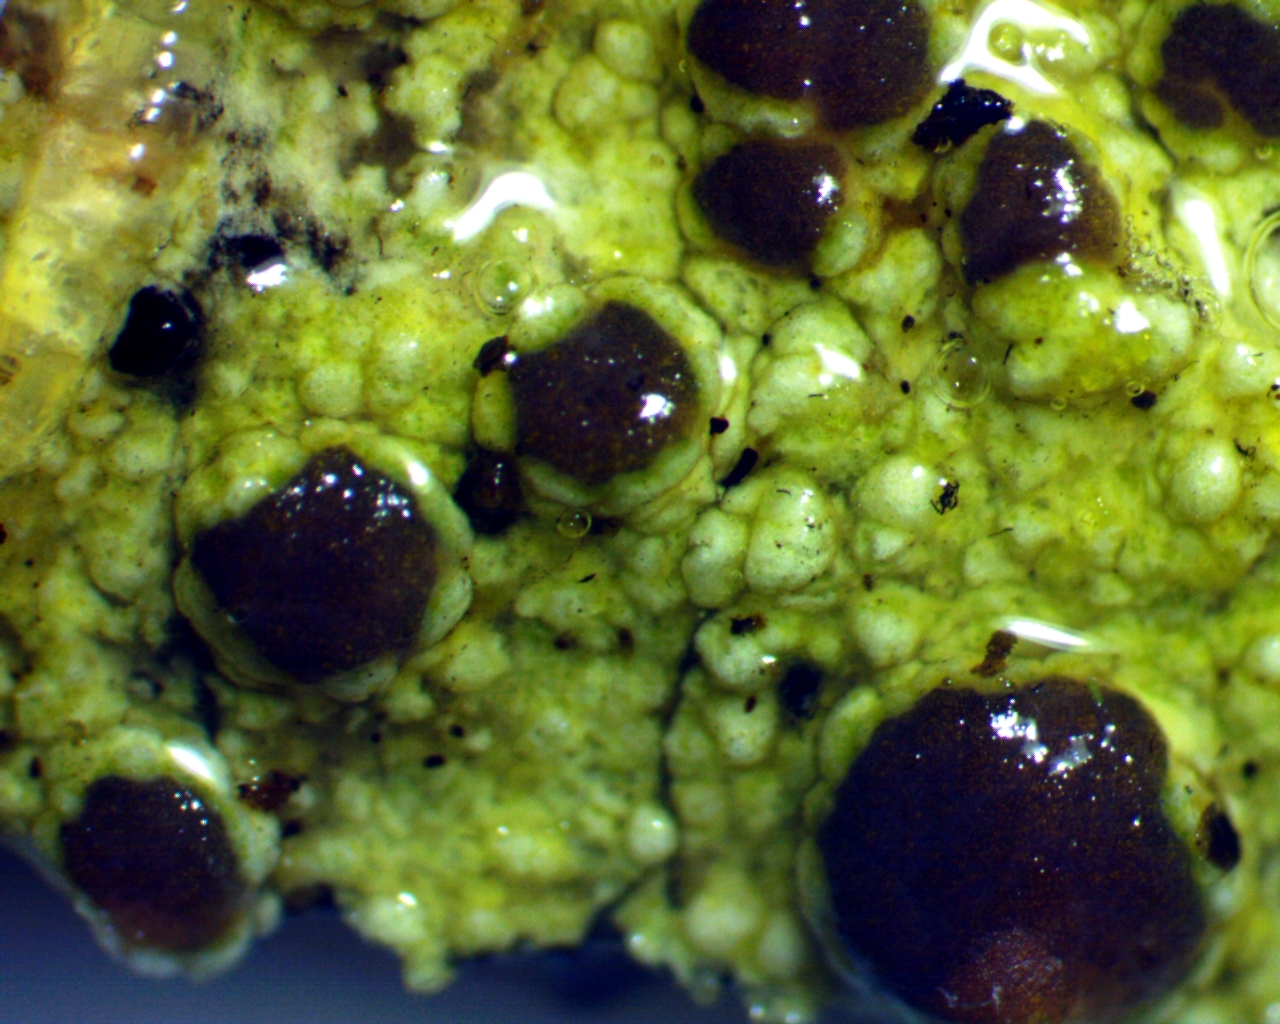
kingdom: Fungi
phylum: Ascomycota
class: Lecanoromycetes
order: Lecanorales
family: Lecanoraceae
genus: Lecanora
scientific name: Lecanora hybocarpa
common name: Bumpy rim-lichen
